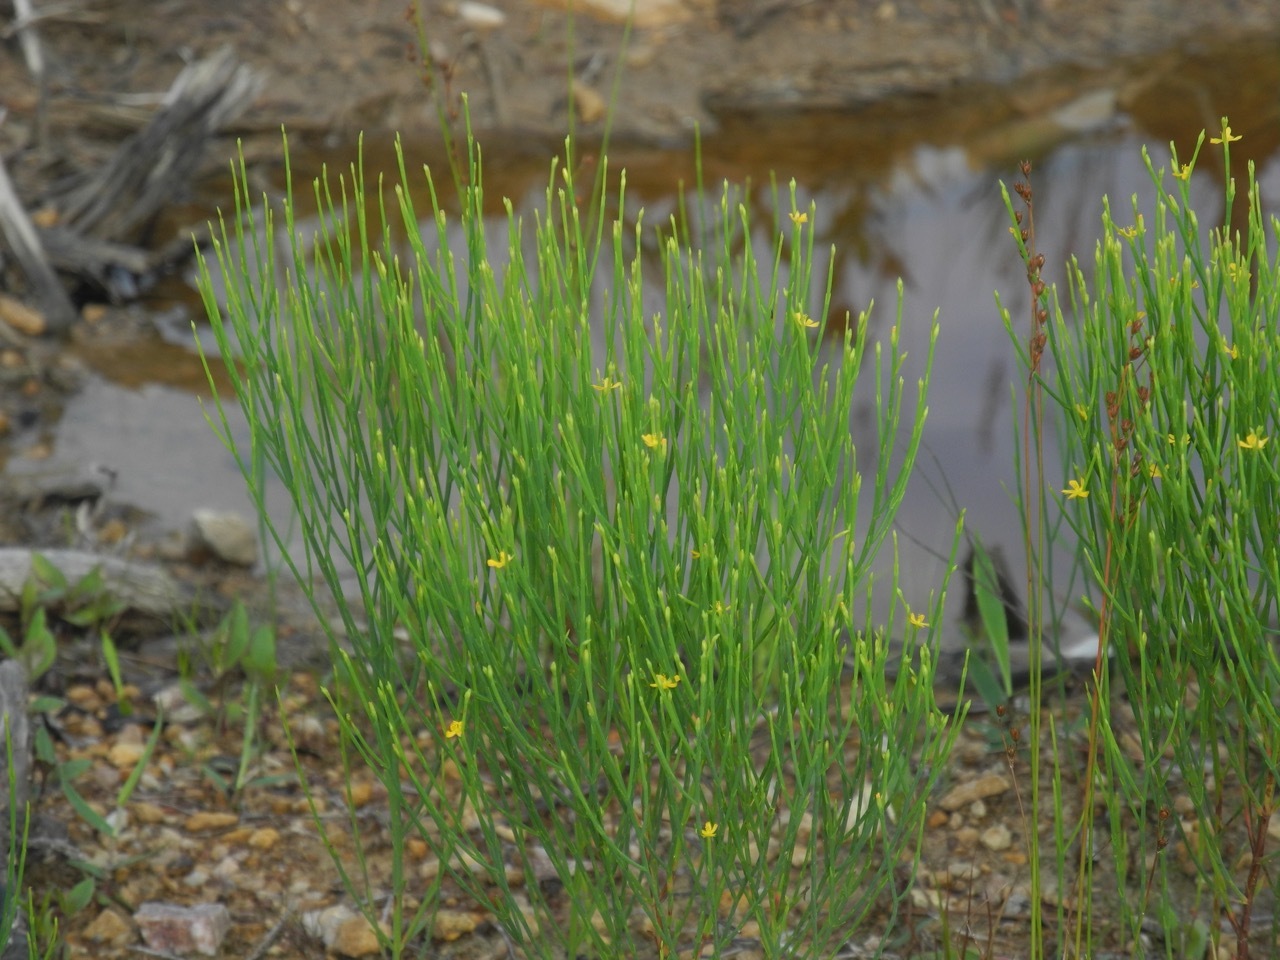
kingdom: Plantae
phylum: Tracheophyta
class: Magnoliopsida
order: Malpighiales
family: Hypericaceae
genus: Hypericum
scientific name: Hypericum gentianoides
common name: Gentian-leaved st. john's-wort
